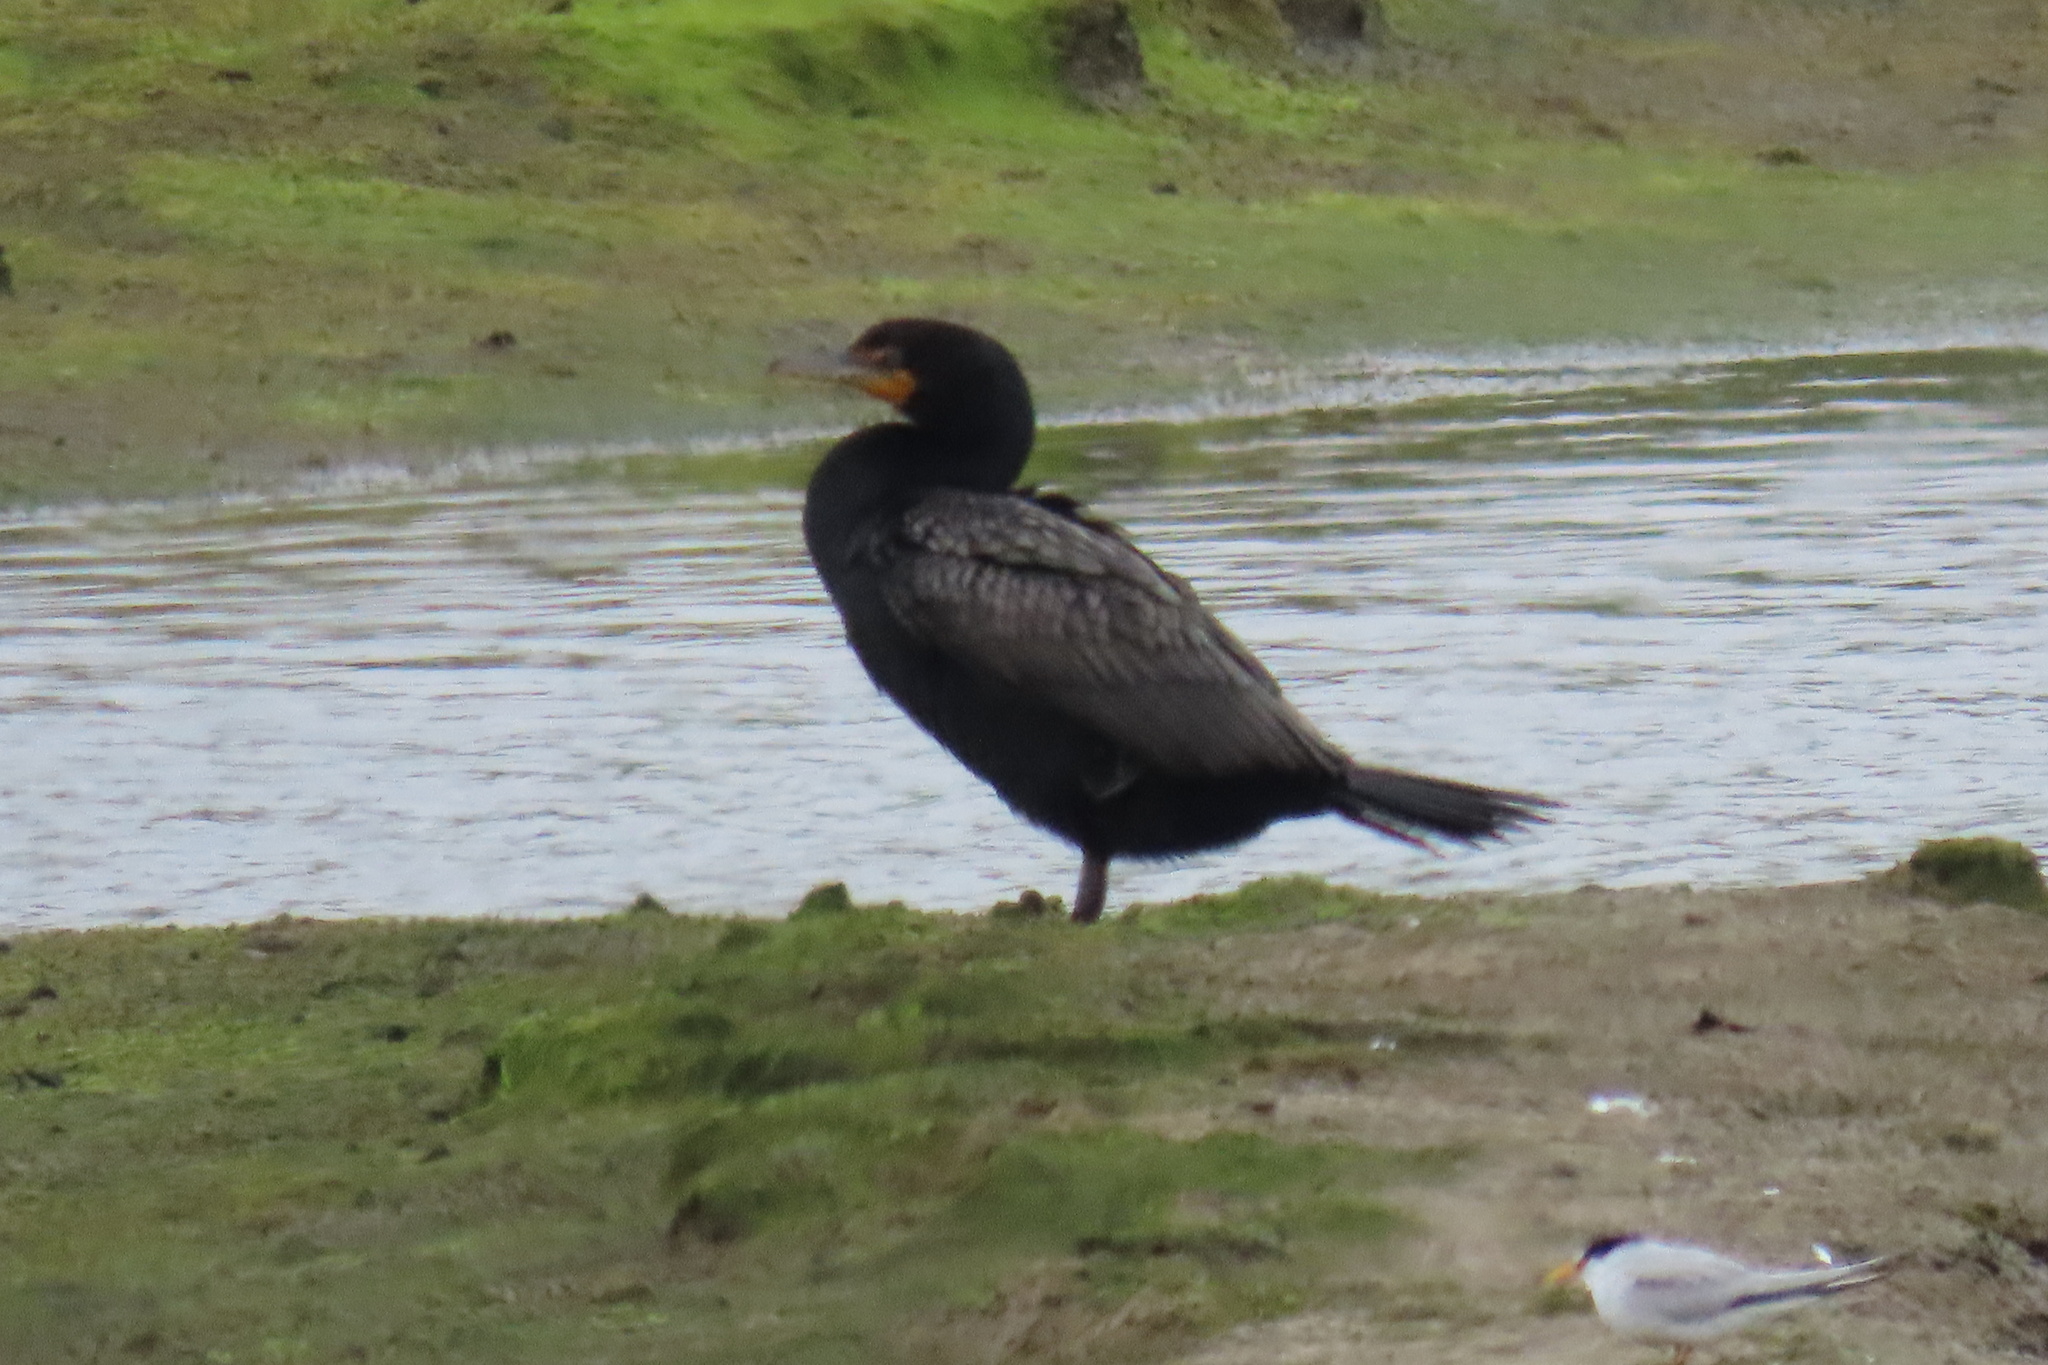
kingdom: Animalia
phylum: Chordata
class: Aves
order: Suliformes
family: Phalacrocoracidae
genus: Phalacrocorax
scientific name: Phalacrocorax auritus
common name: Double-crested cormorant
